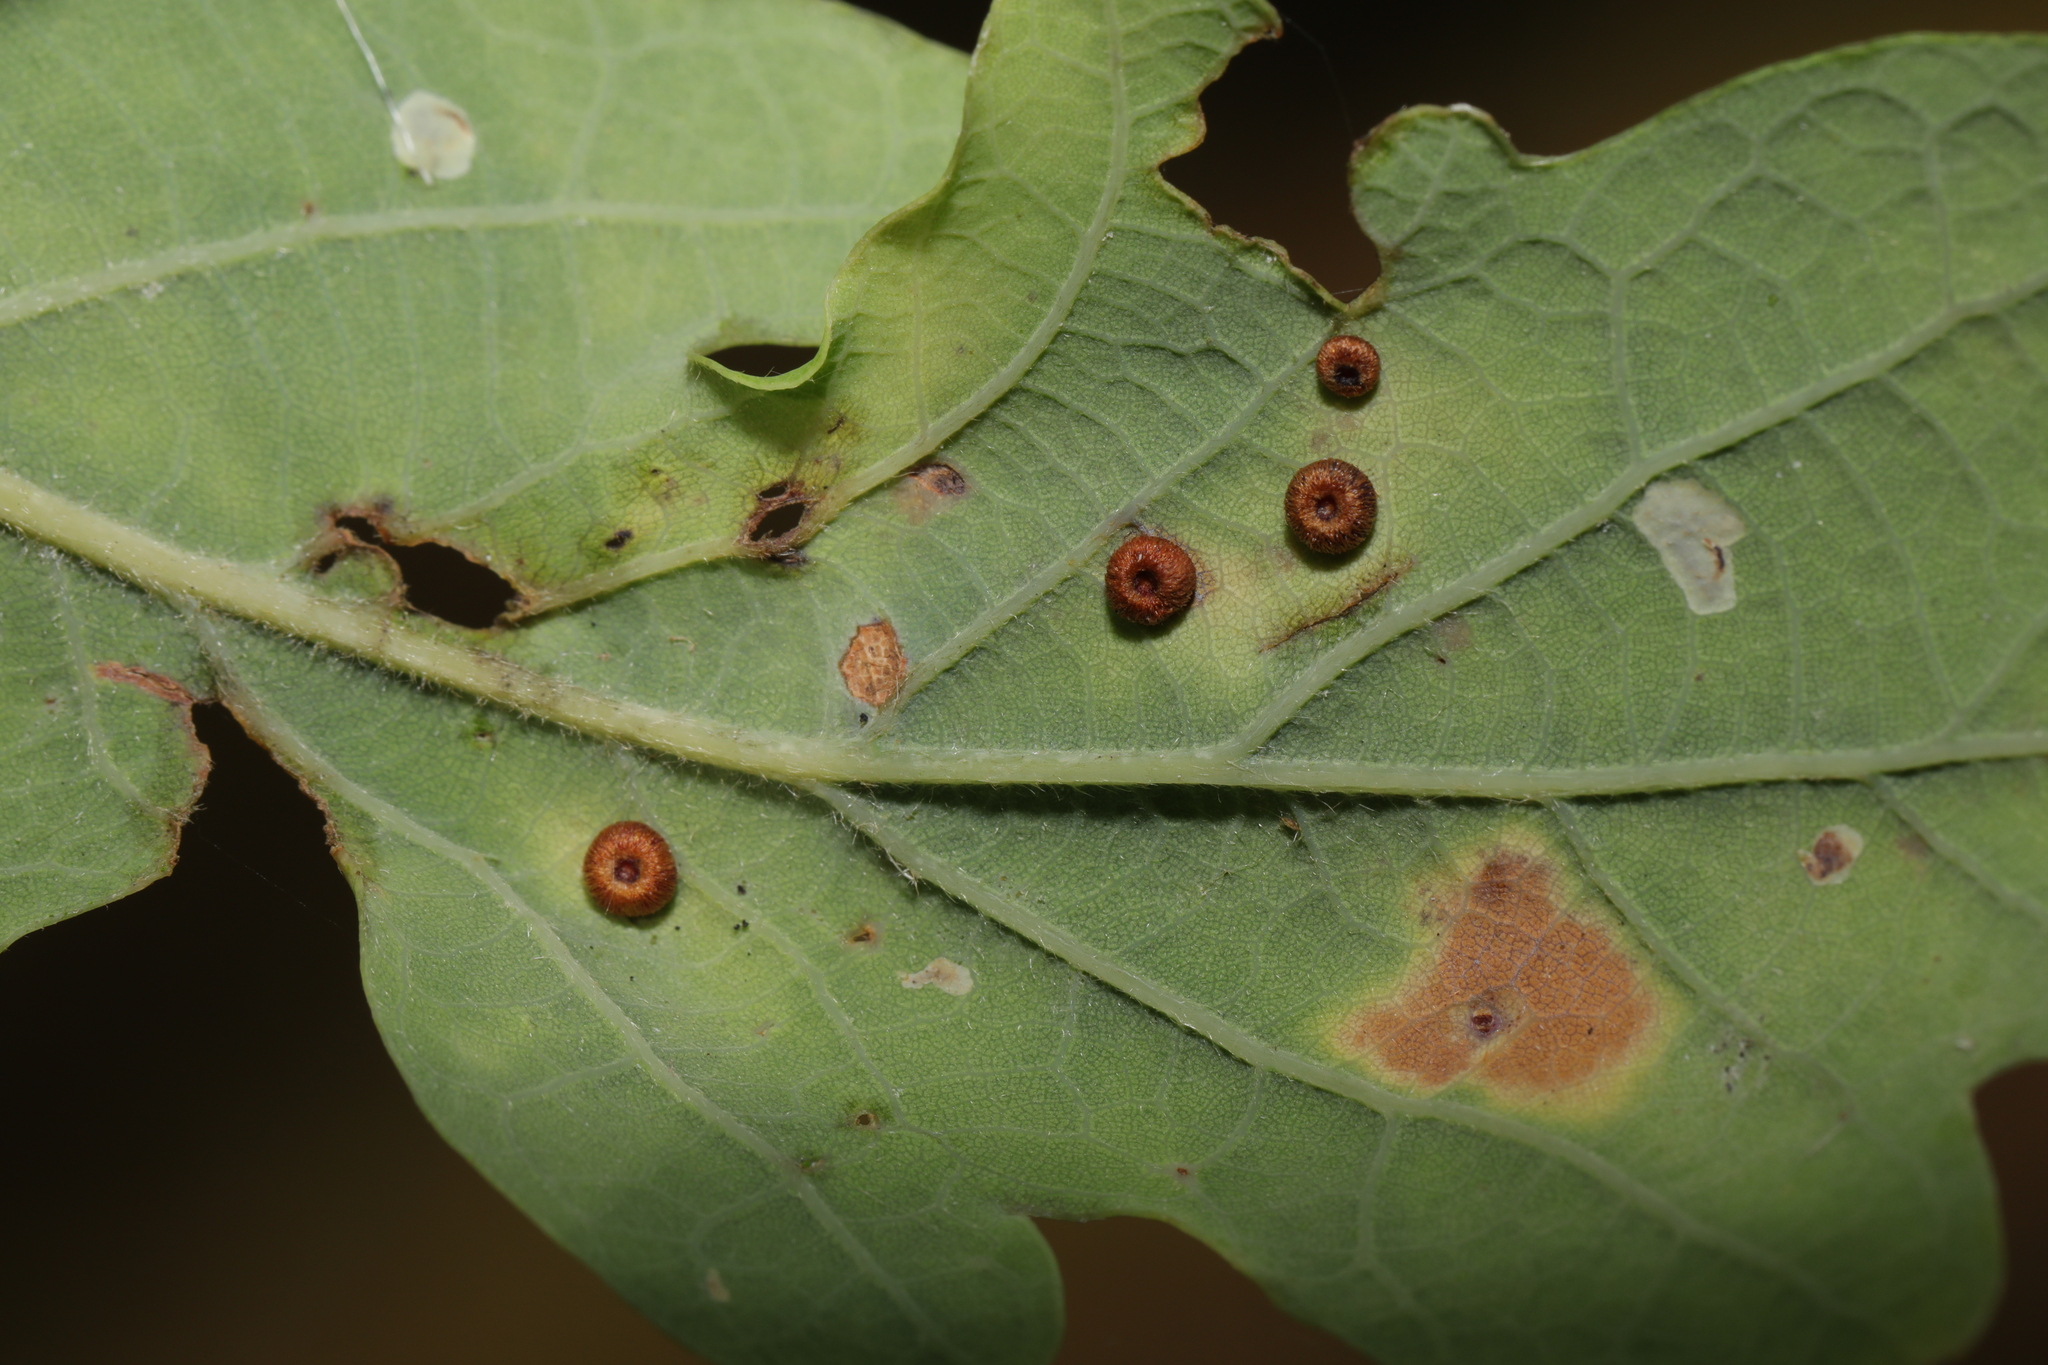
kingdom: Animalia
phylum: Arthropoda
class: Insecta
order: Hymenoptera
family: Cynipidae
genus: Neuroterus
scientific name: Neuroterus numismalis
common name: Silk-button spangle gall
